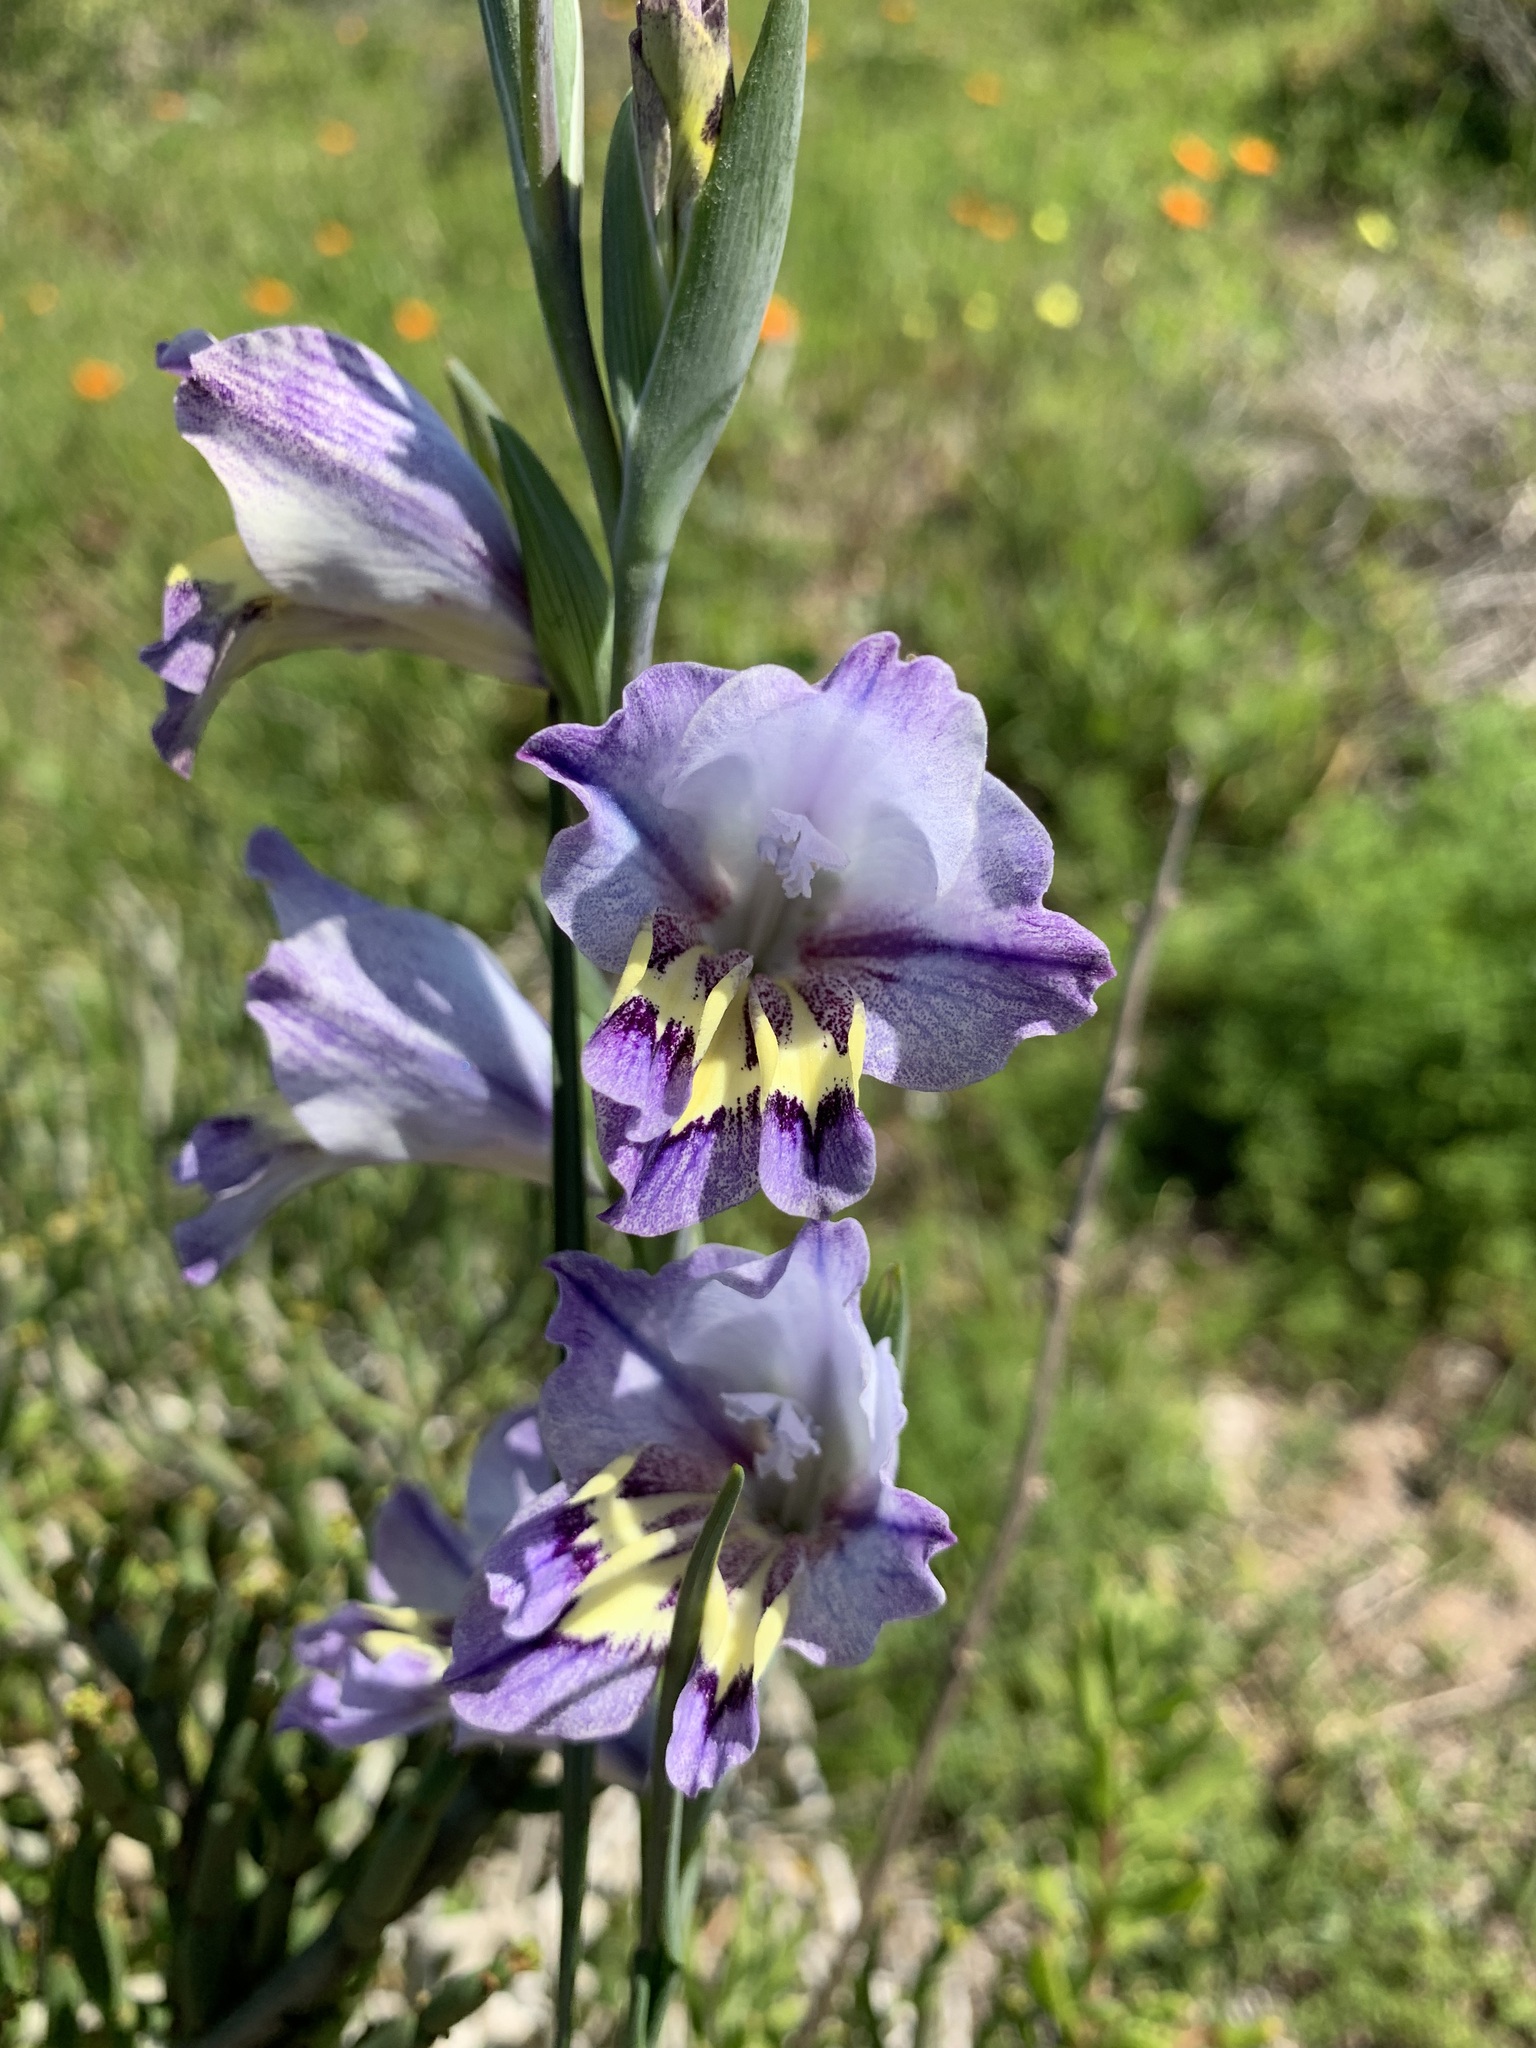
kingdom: Plantae
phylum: Tracheophyta
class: Liliopsida
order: Asparagales
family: Iridaceae
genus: Gladiolus
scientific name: Gladiolus carinatus
